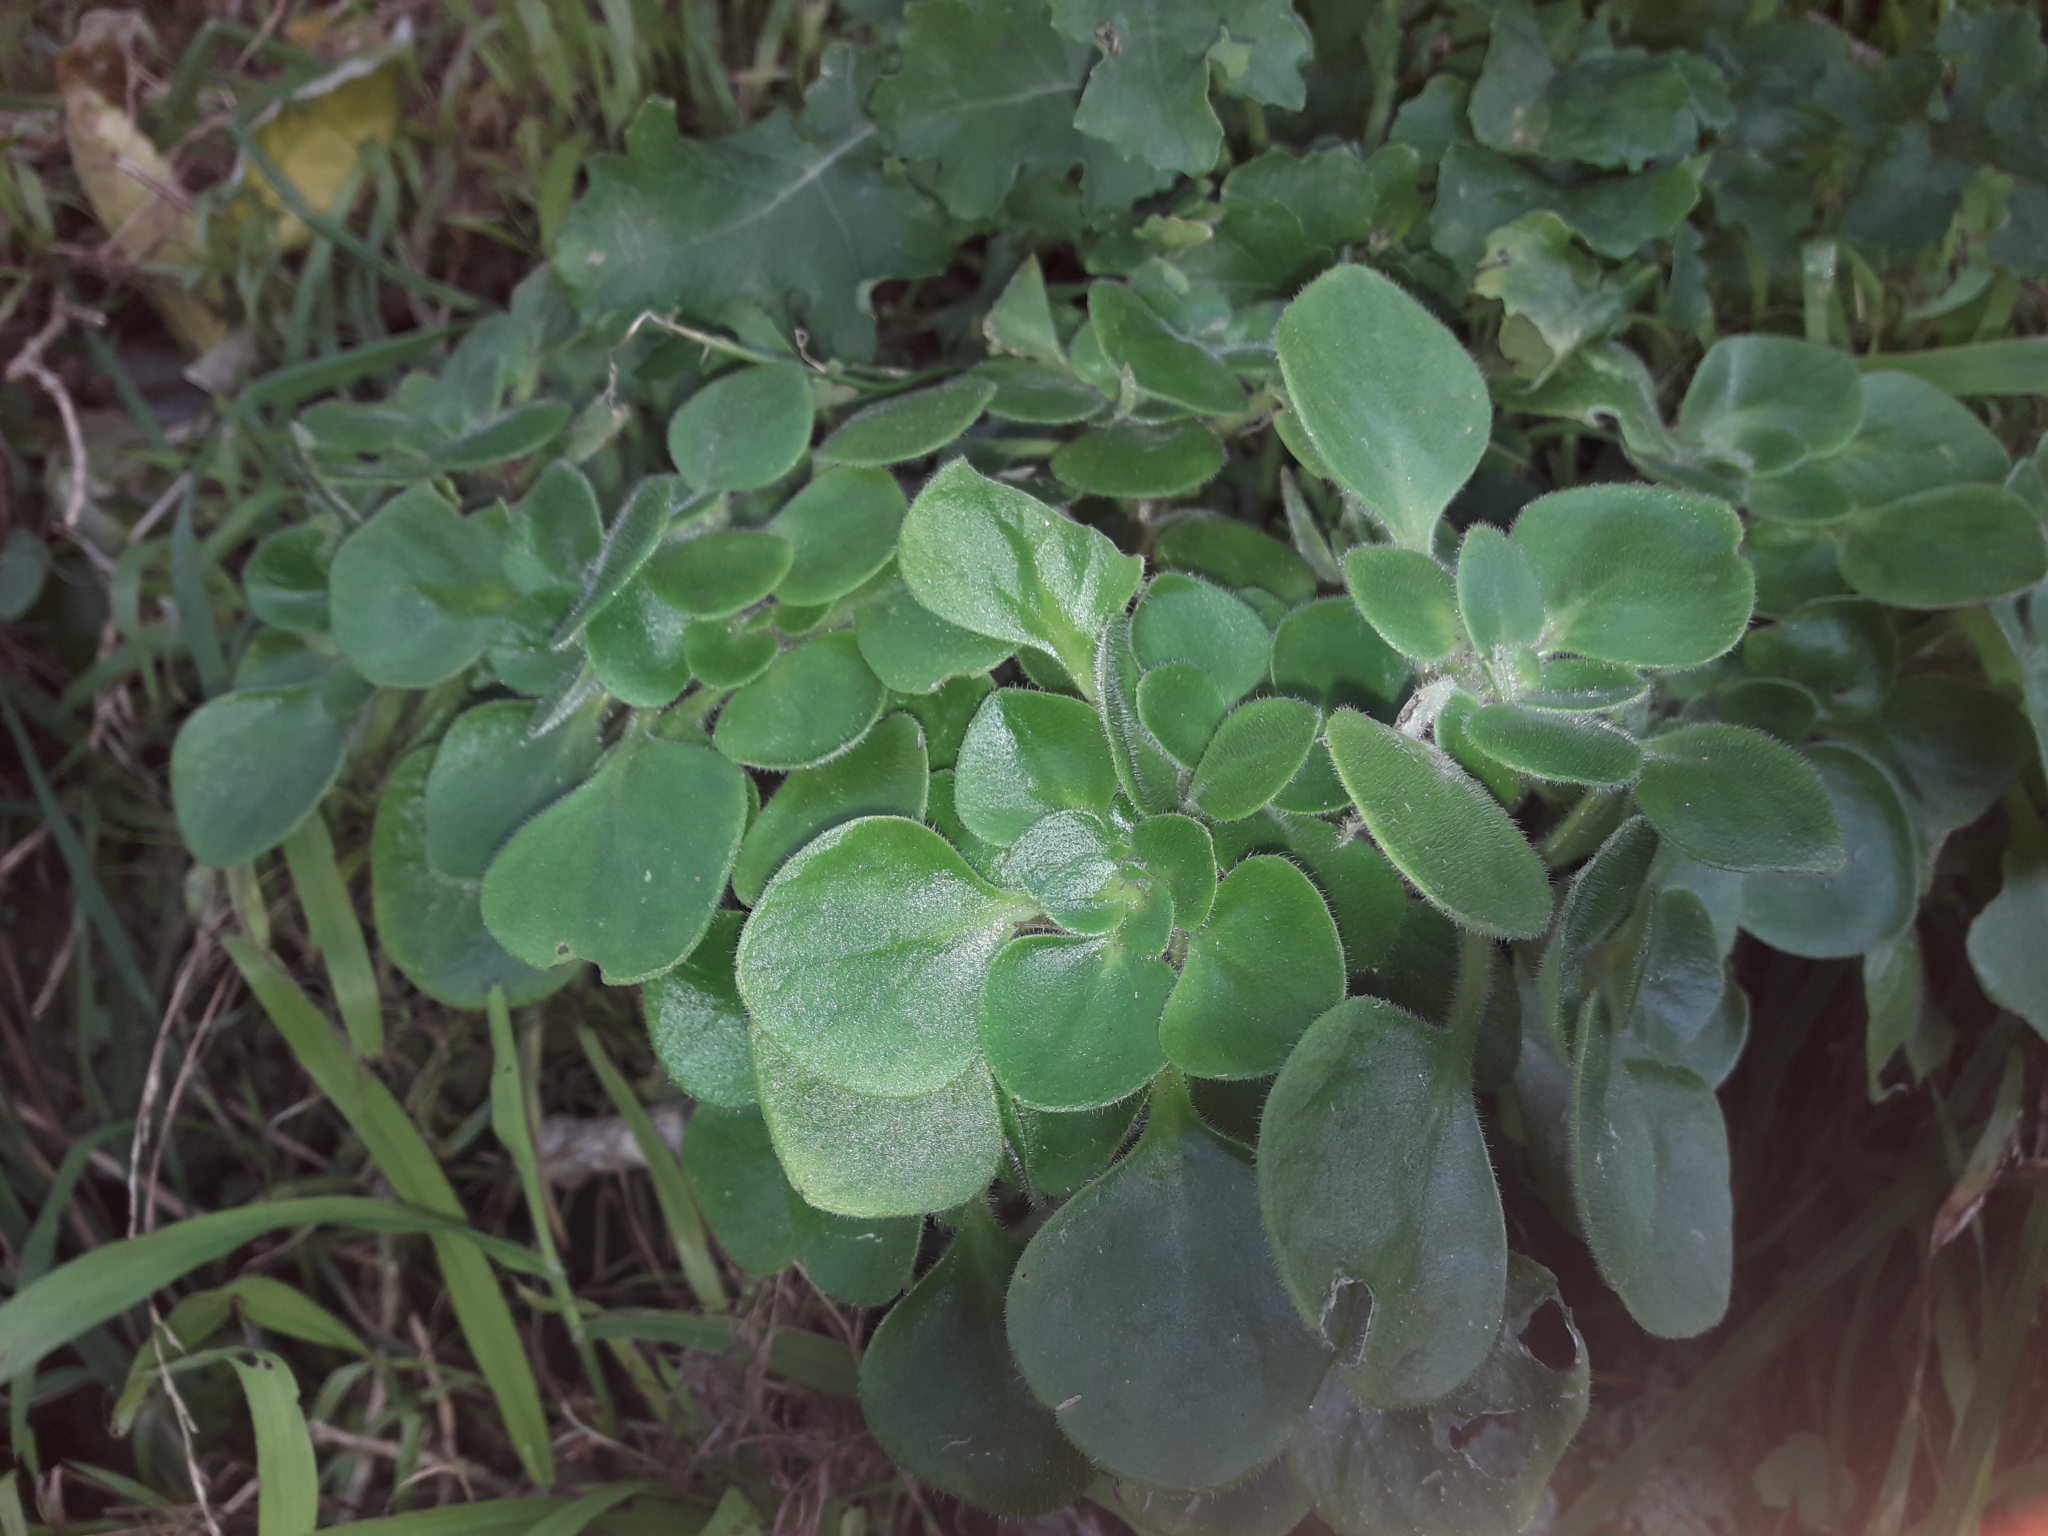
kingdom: Plantae
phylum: Tracheophyta
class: Magnoliopsida
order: Saxifragales
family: Crassulaceae
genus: Aichryson
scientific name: Aichryson laxum
